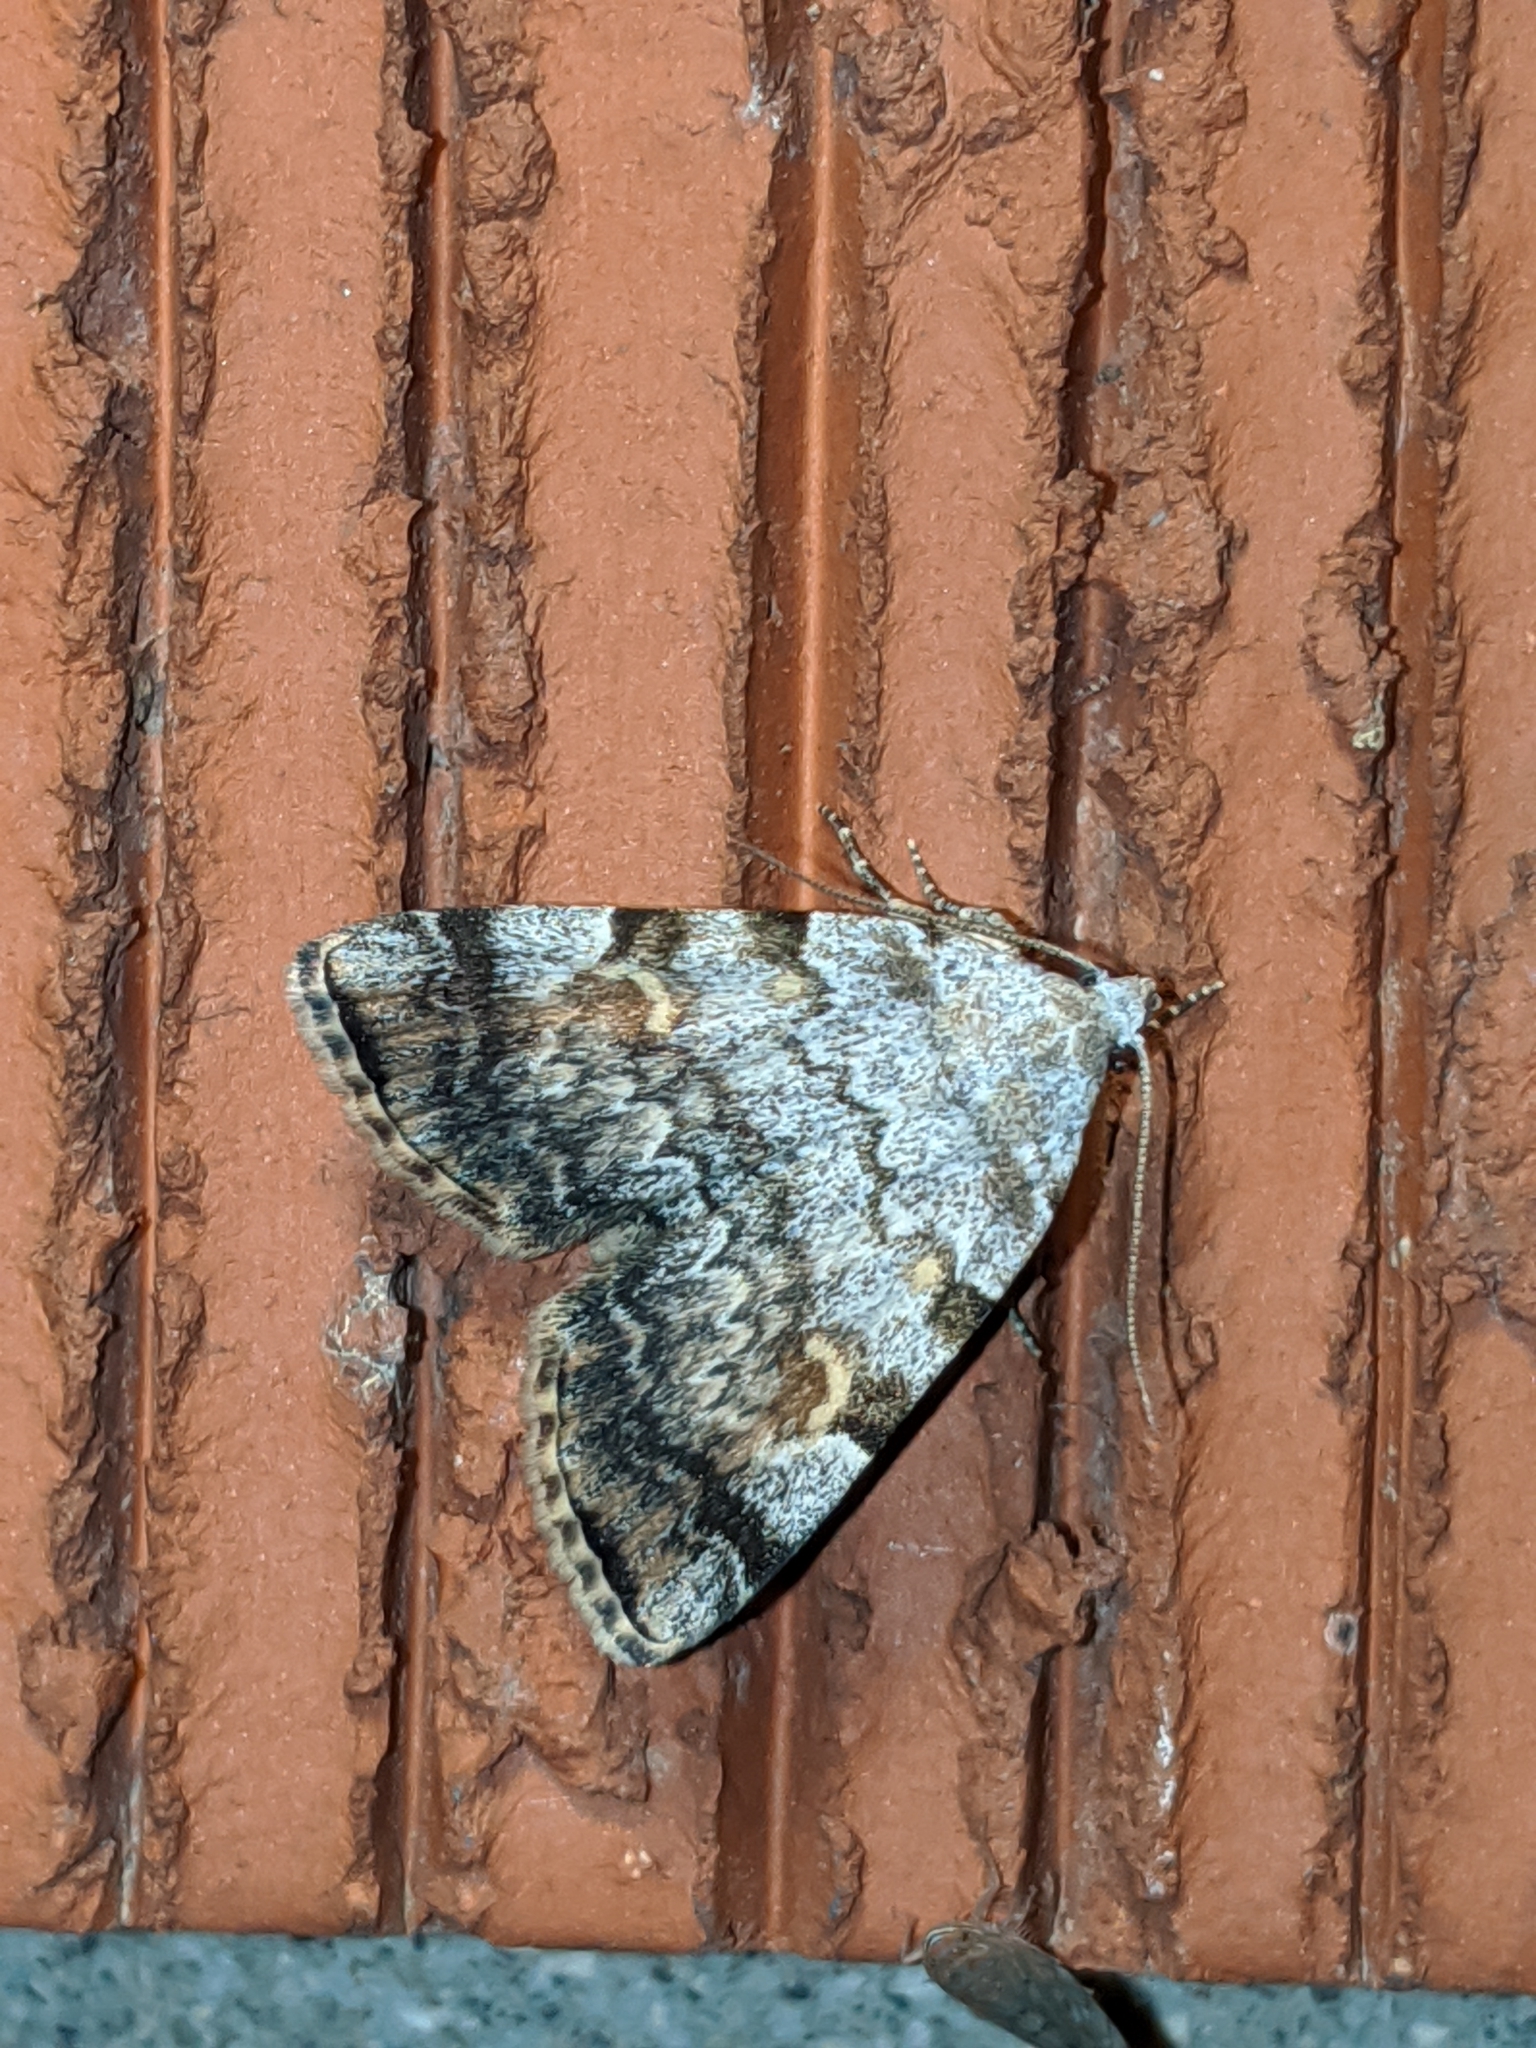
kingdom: Animalia
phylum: Arthropoda
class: Insecta
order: Lepidoptera
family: Erebidae
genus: Idia
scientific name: Idia americalis
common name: American idia moth
